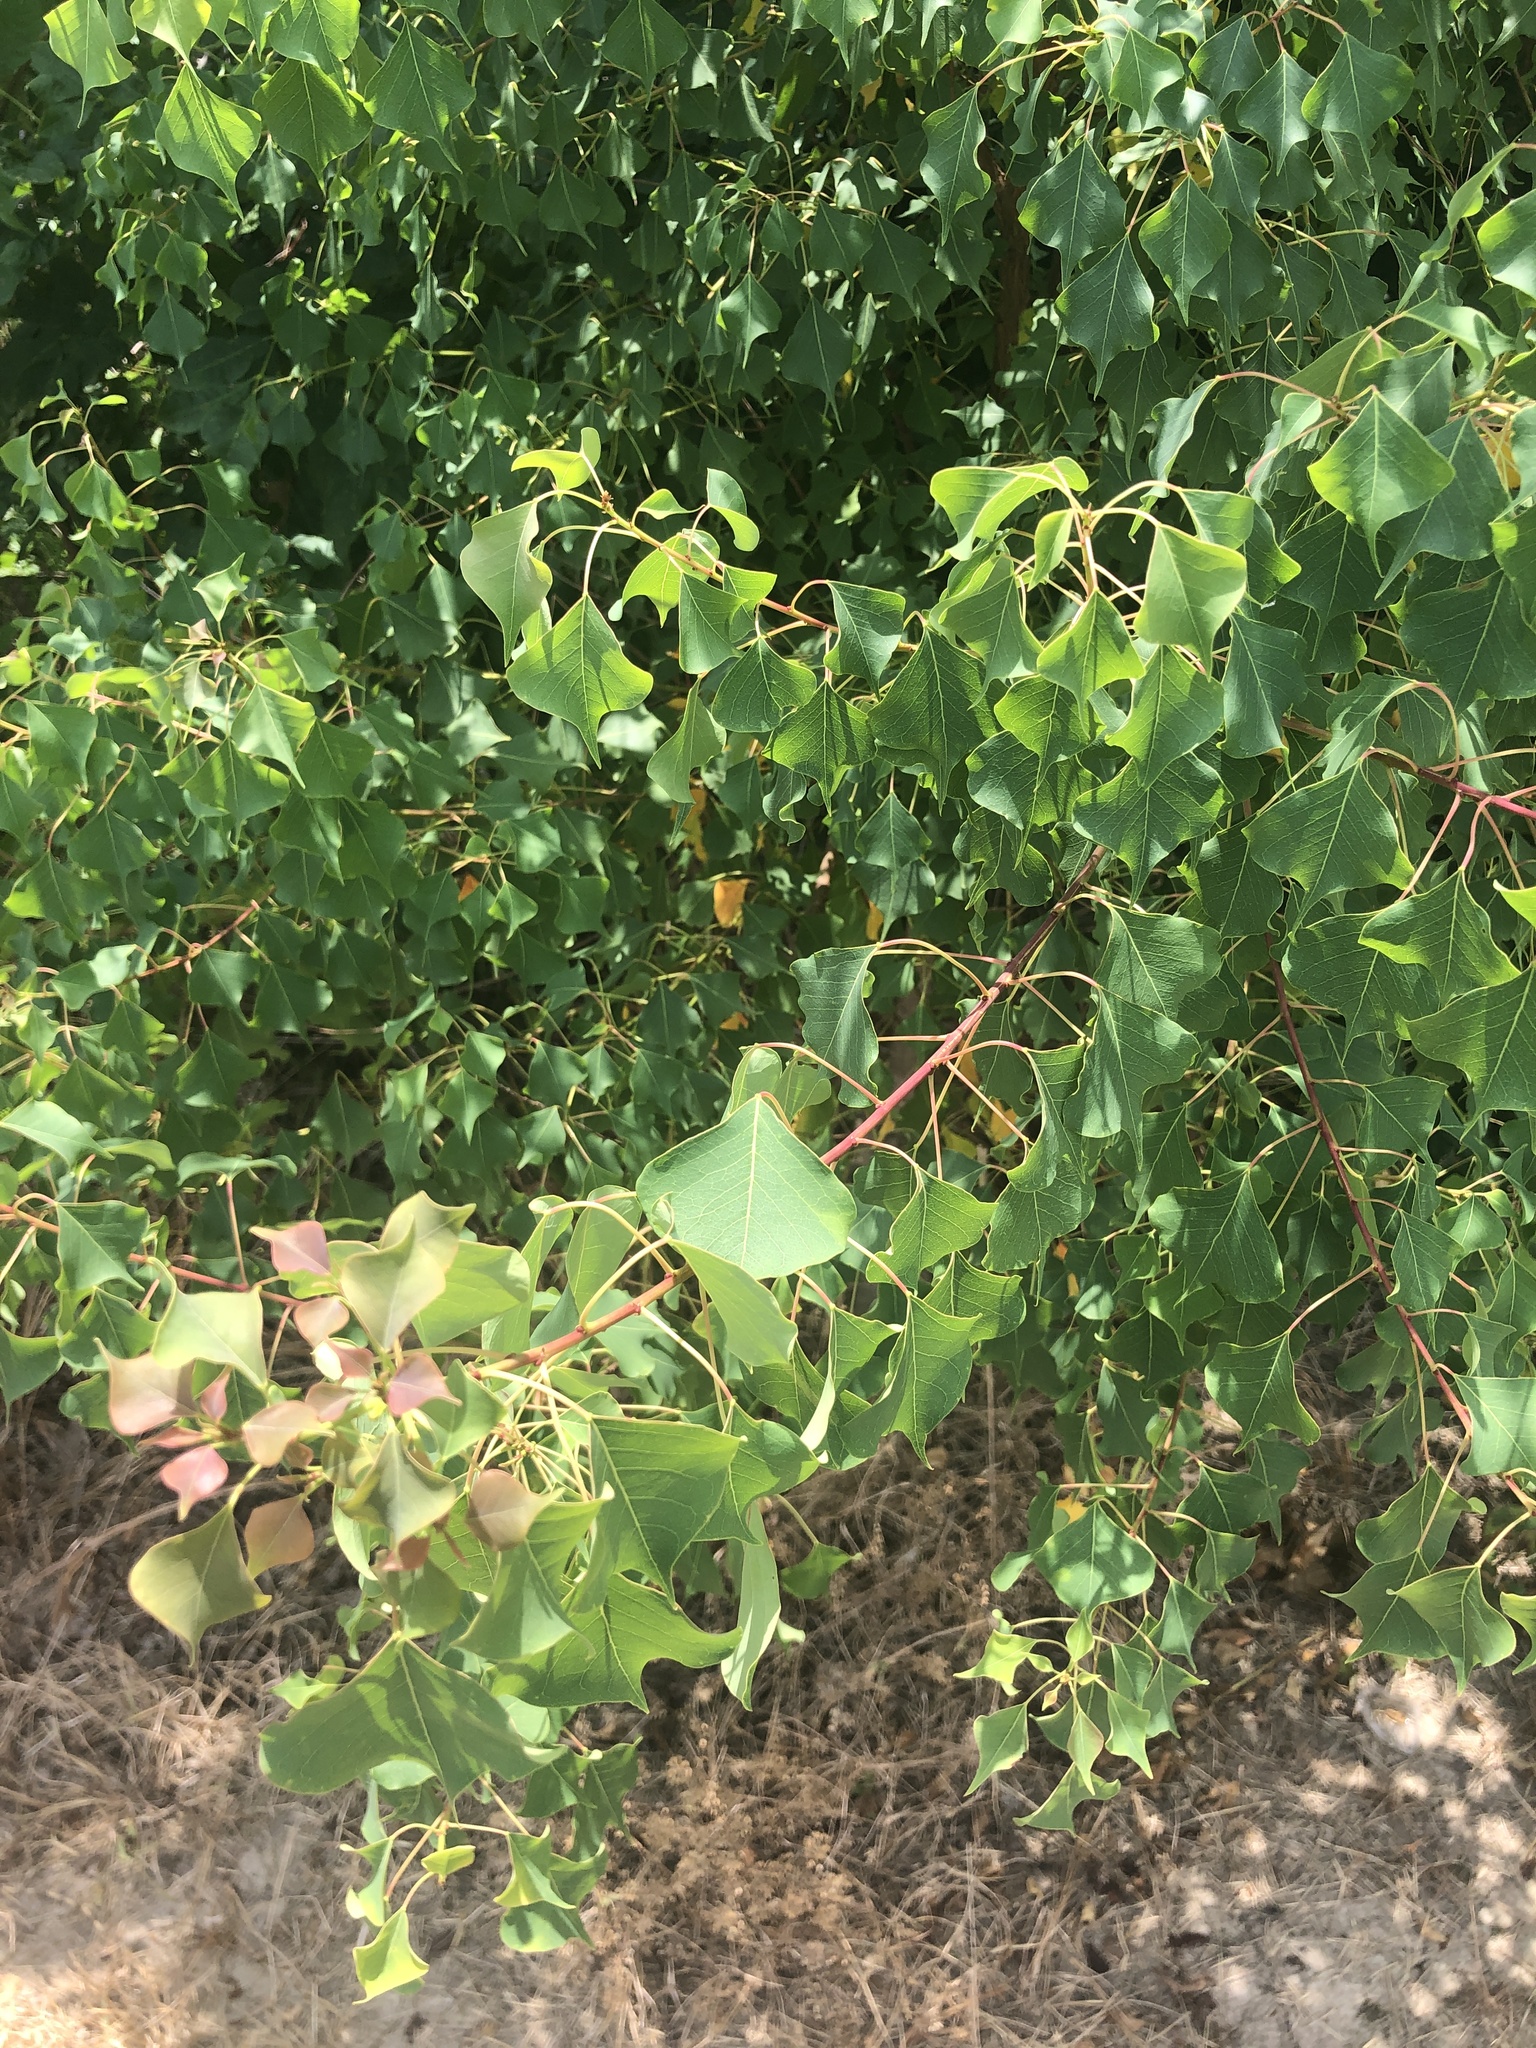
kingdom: Plantae
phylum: Tracheophyta
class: Magnoliopsida
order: Malpighiales
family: Euphorbiaceae
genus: Triadica
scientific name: Triadica sebifera
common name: Chinese tallow
